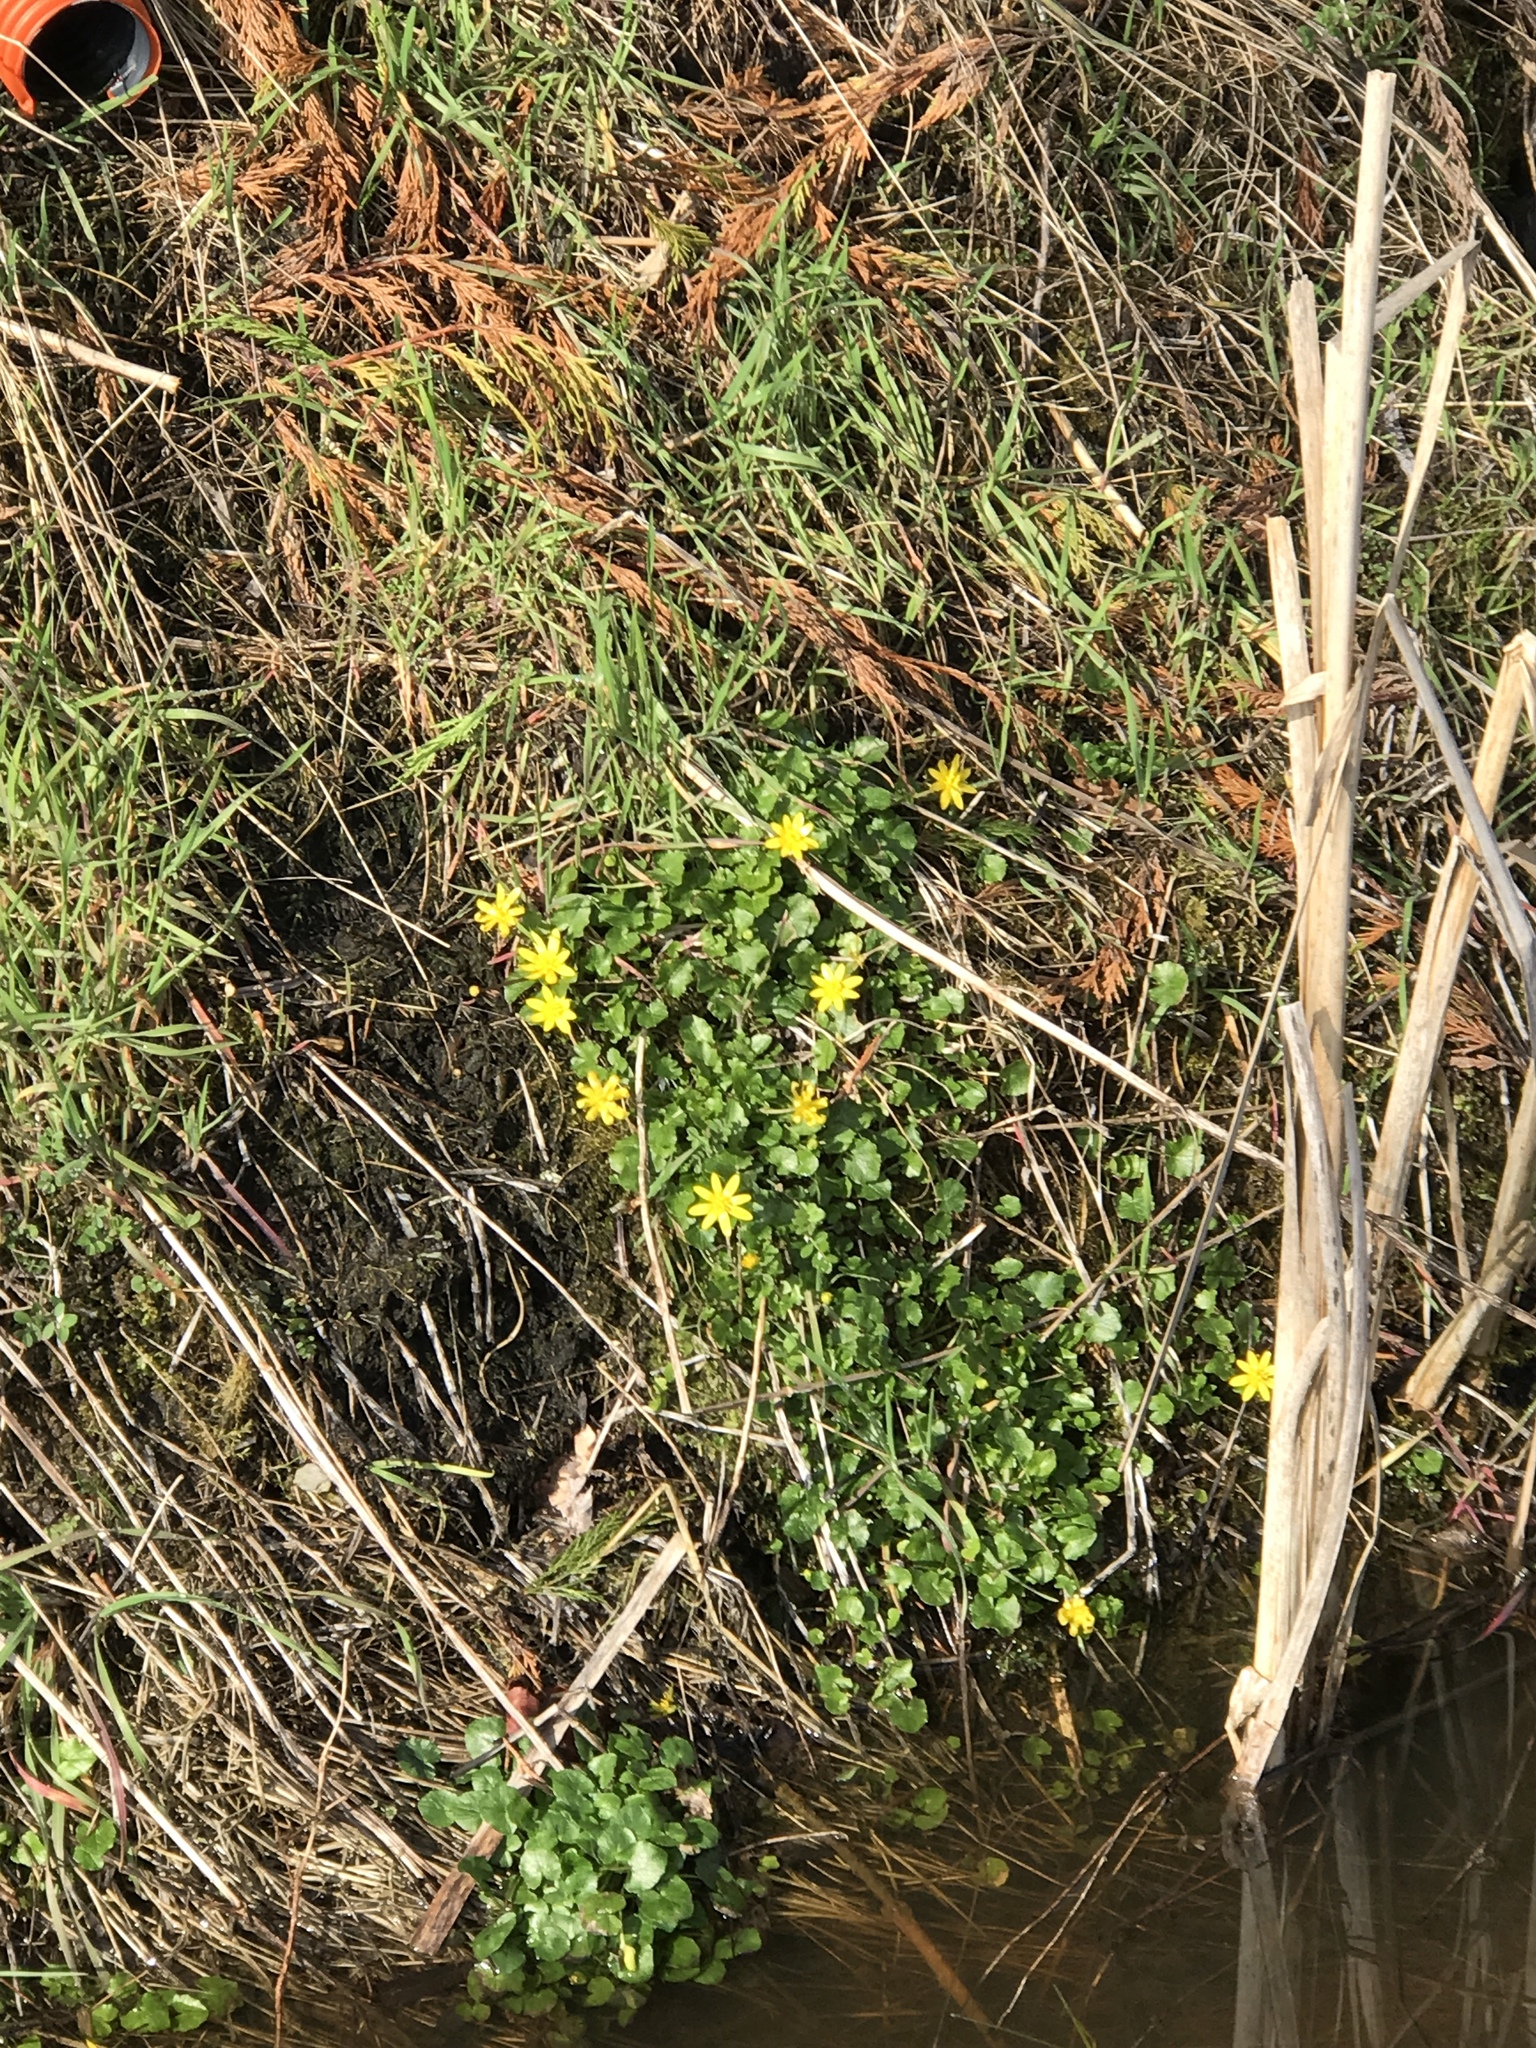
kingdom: Plantae
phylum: Tracheophyta
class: Magnoliopsida
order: Ranunculales
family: Ranunculaceae
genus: Ficaria
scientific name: Ficaria verna
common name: Lesser celandine
